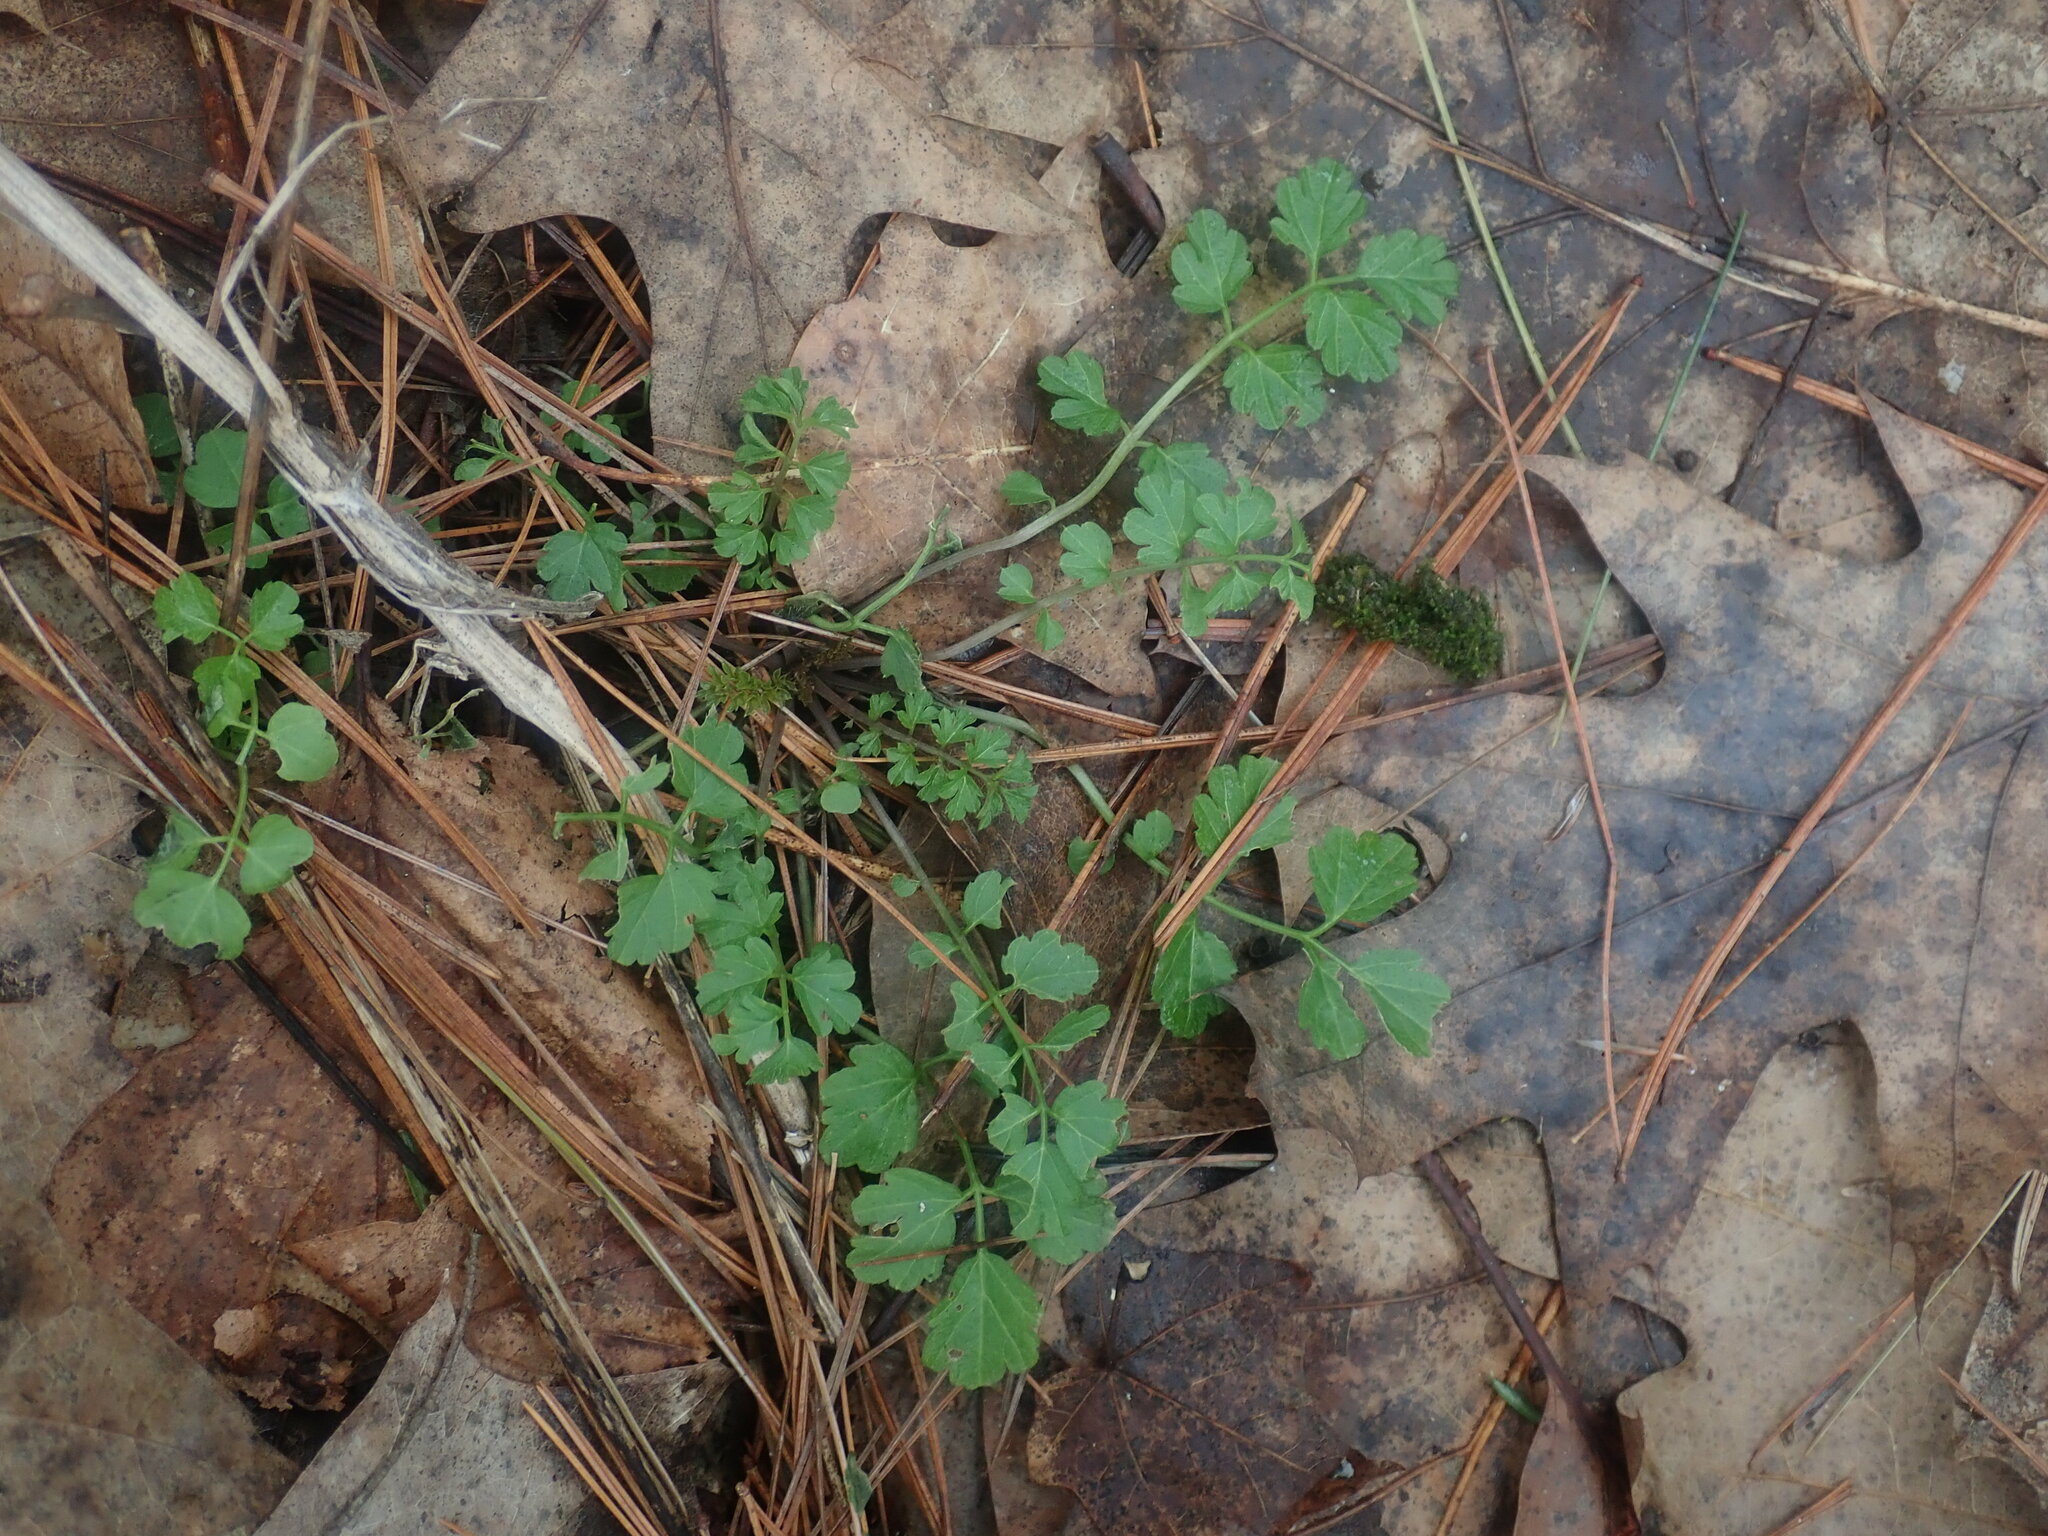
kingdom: Plantae
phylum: Tracheophyta
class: Magnoliopsida
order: Brassicales
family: Brassicaceae
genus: Cardamine
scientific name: Cardamine impatiens
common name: Narrow-leaved bitter-cress
